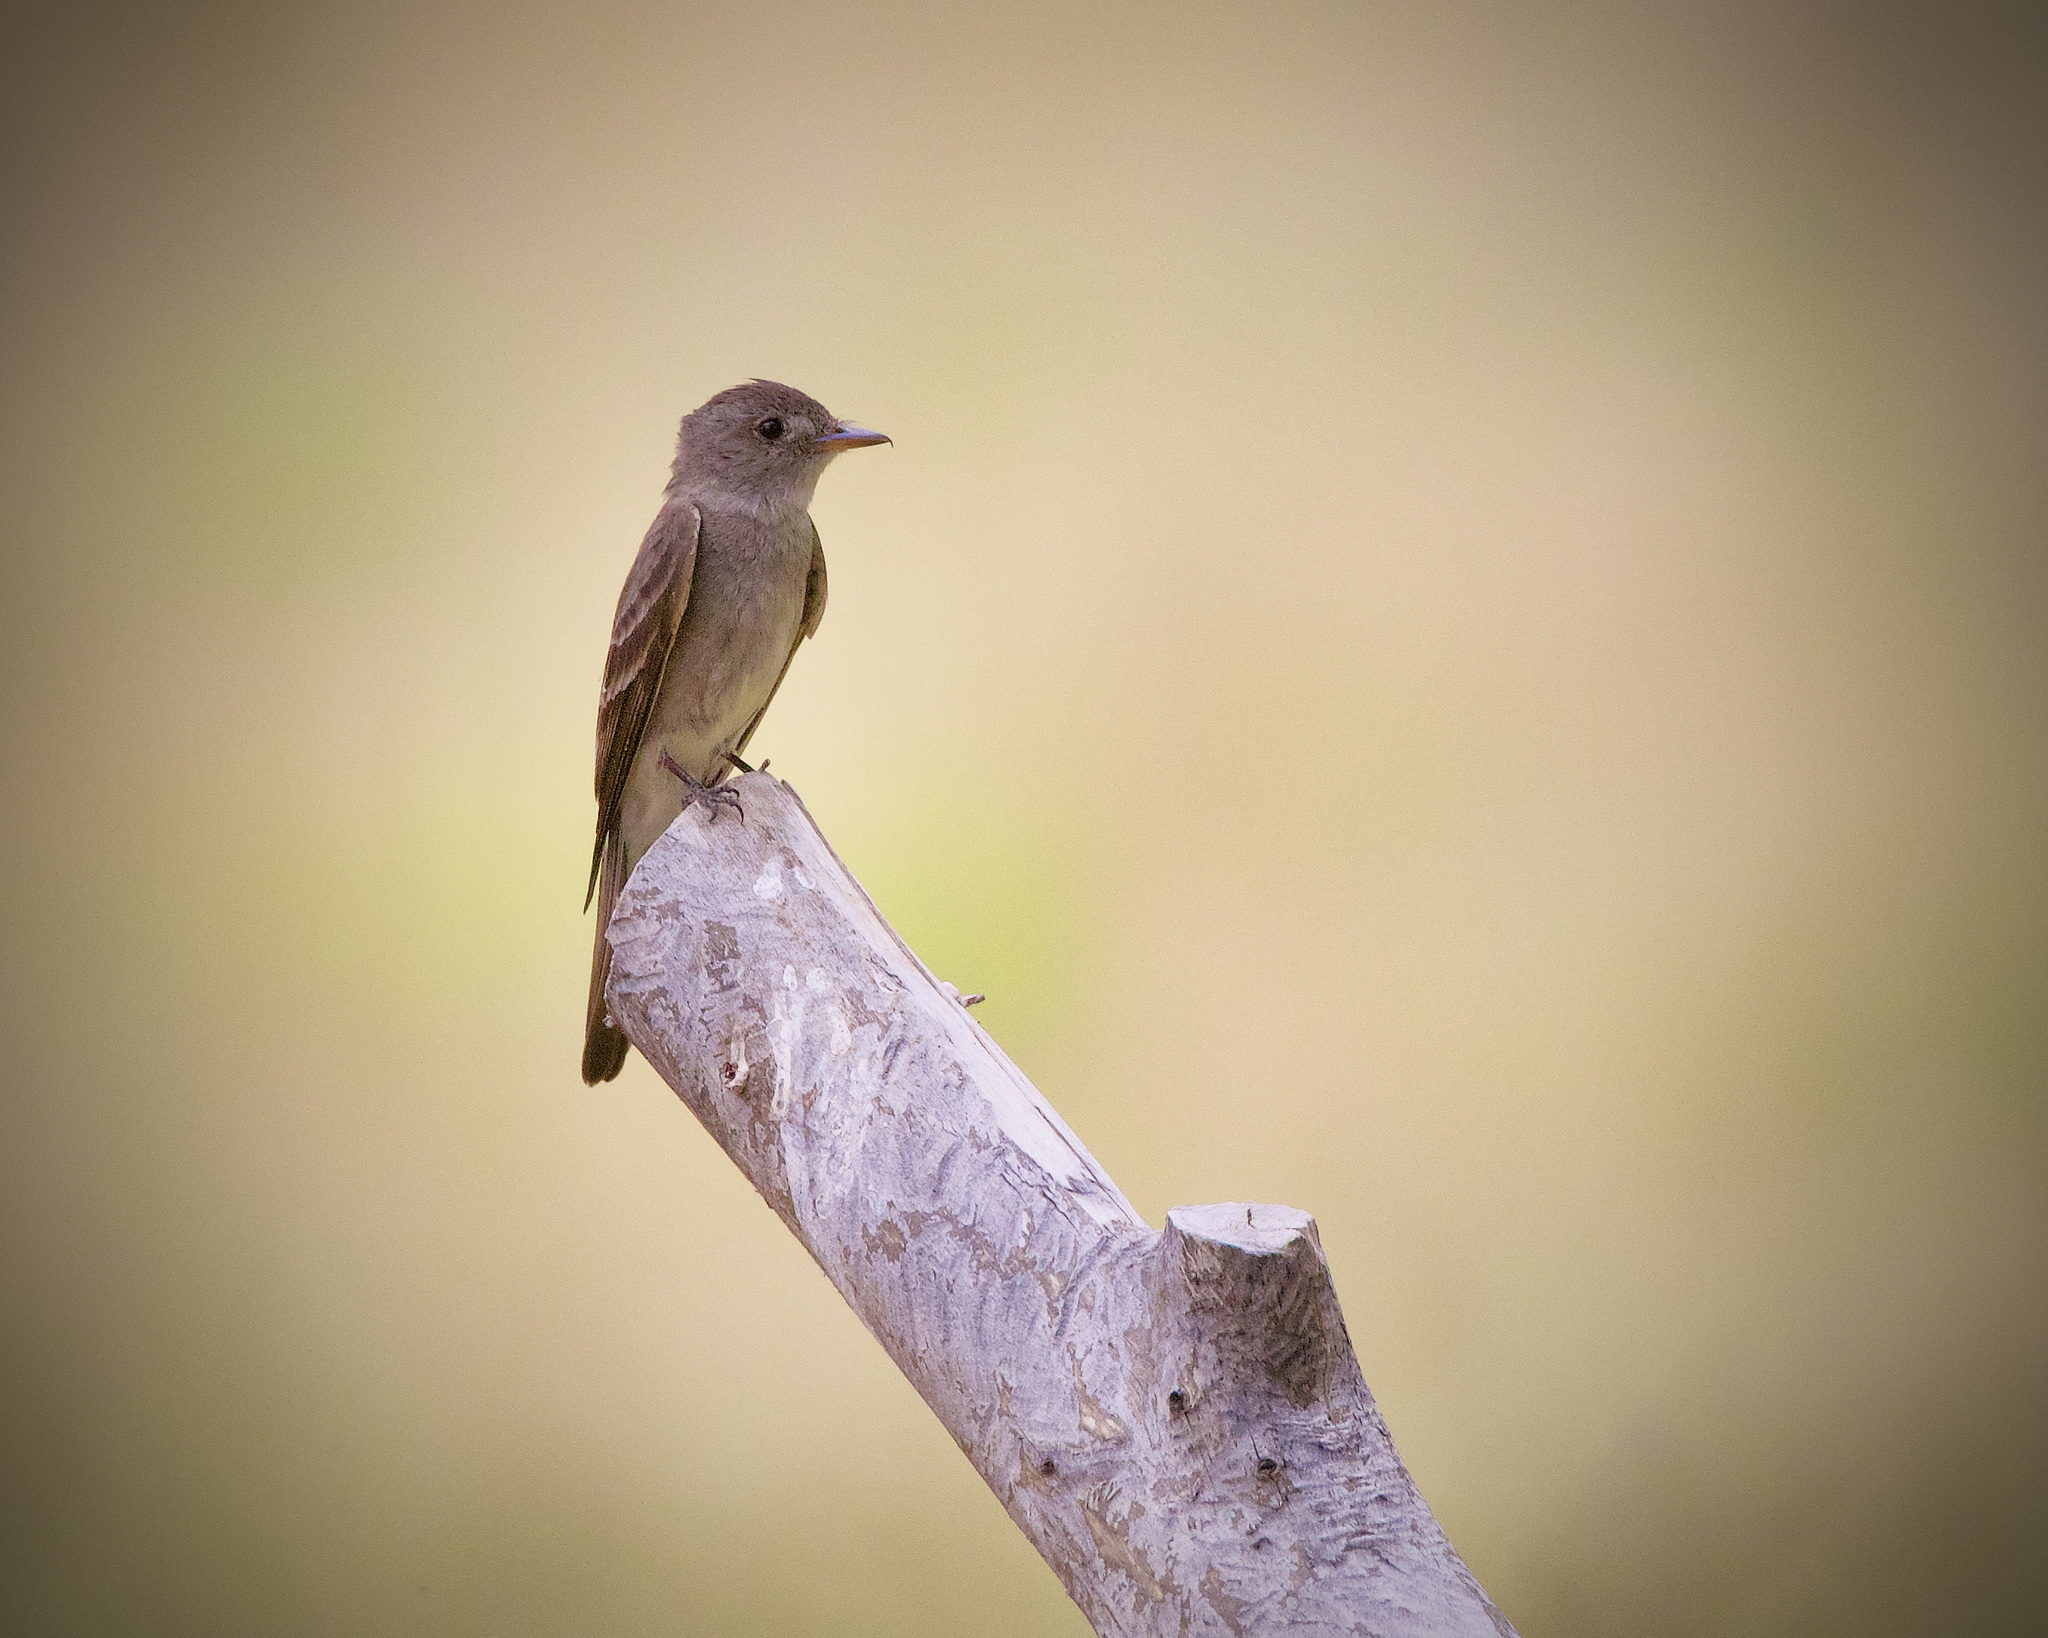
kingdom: Animalia
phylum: Chordata
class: Aves
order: Passeriformes
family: Tyrannidae
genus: Contopus
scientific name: Contopus sordidulus
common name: Western wood-pewee
